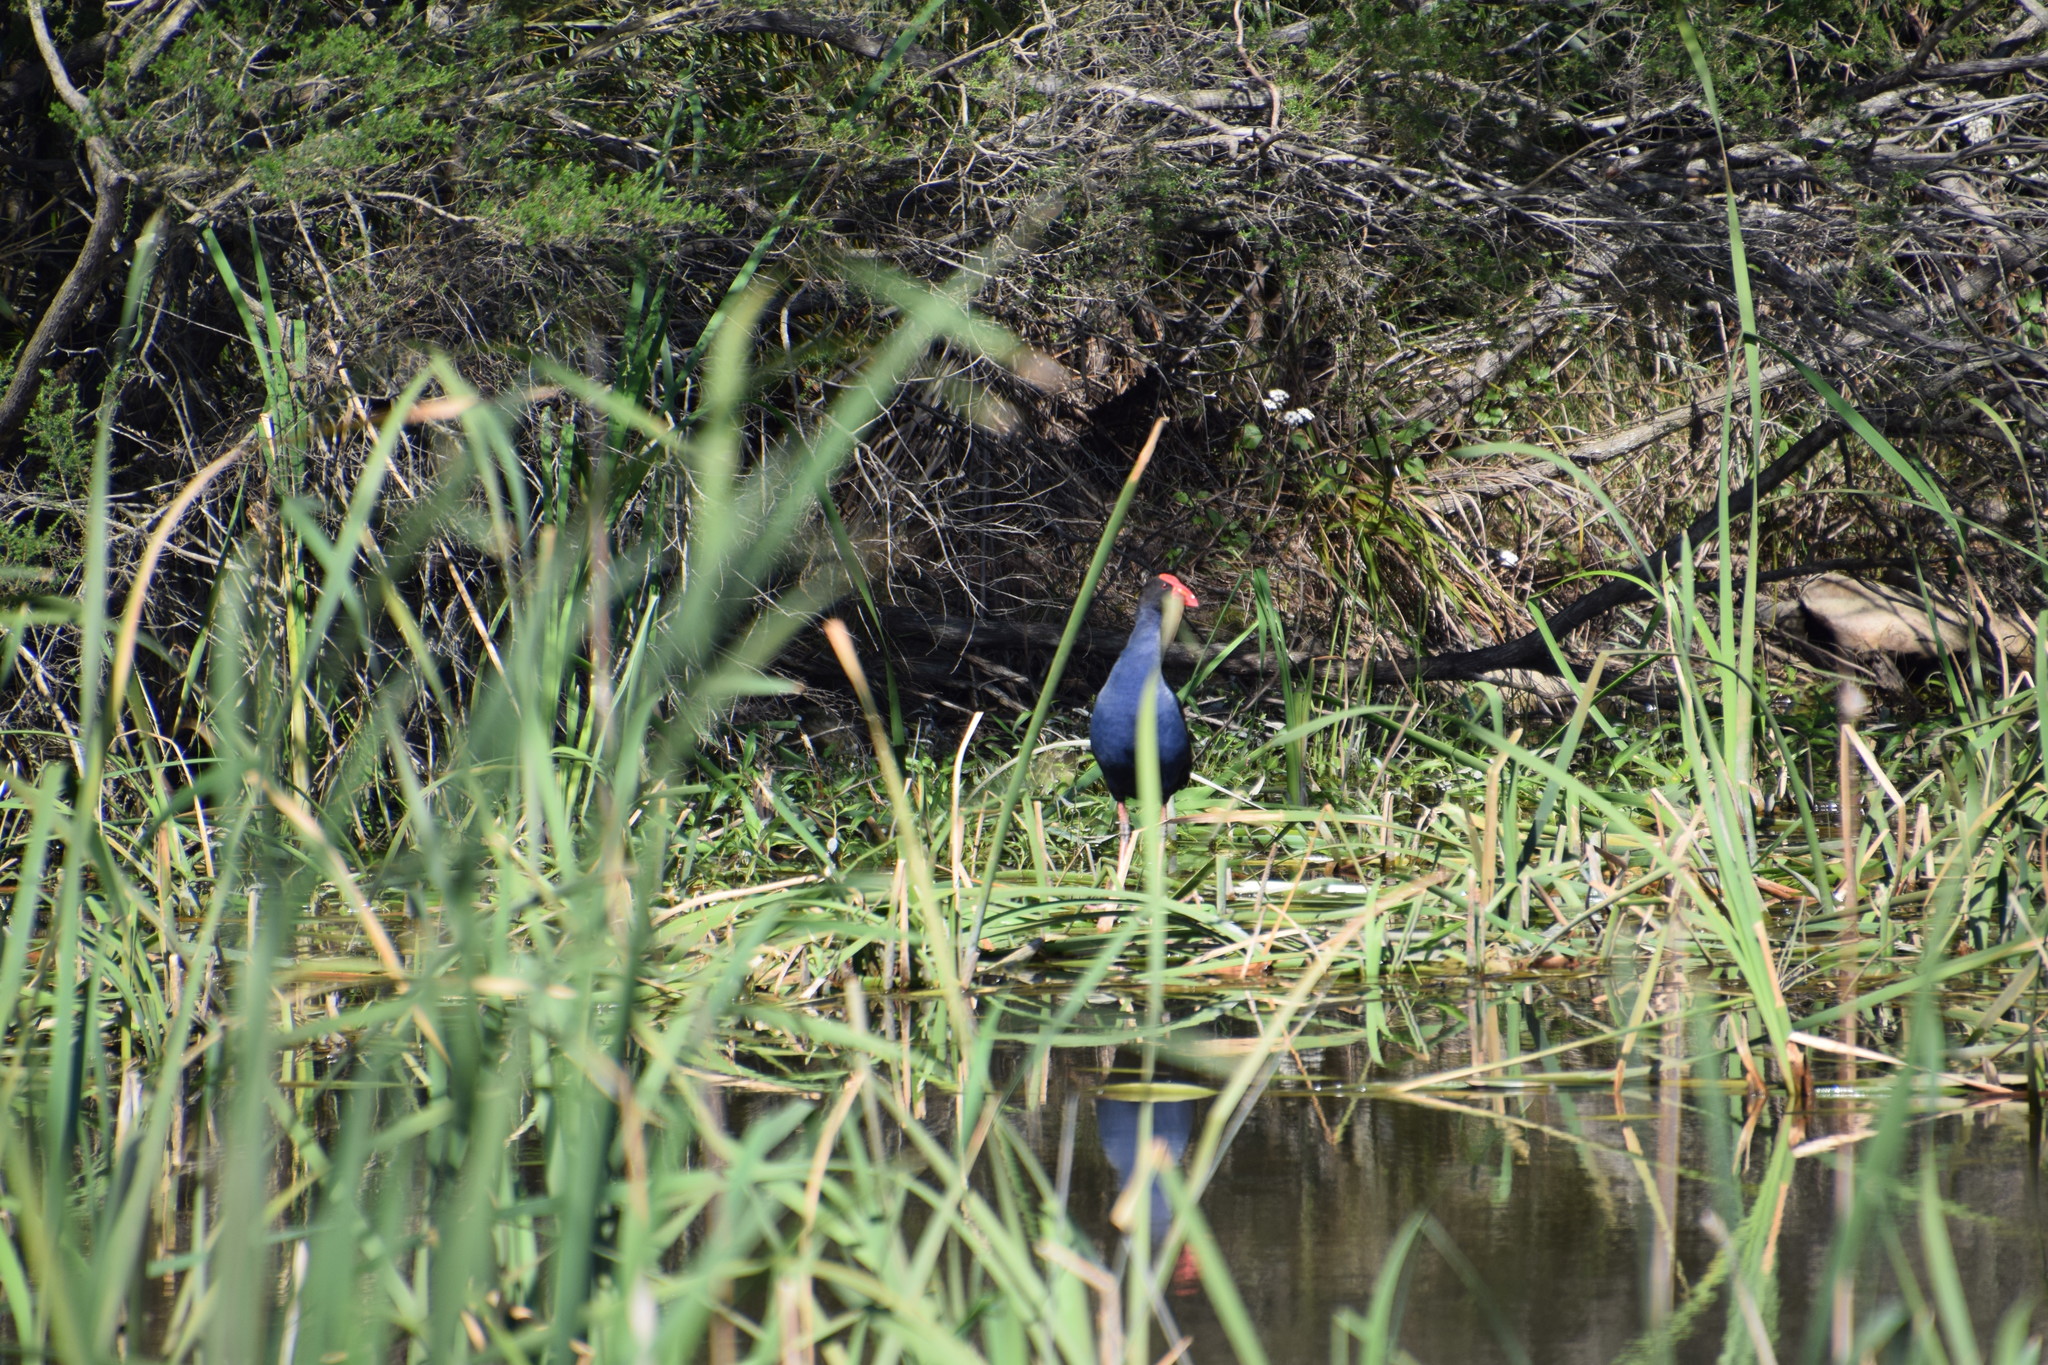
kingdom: Animalia
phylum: Chordata
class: Aves
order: Gruiformes
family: Rallidae
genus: Porphyrio
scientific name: Porphyrio melanotus
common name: Australasian swamphen
